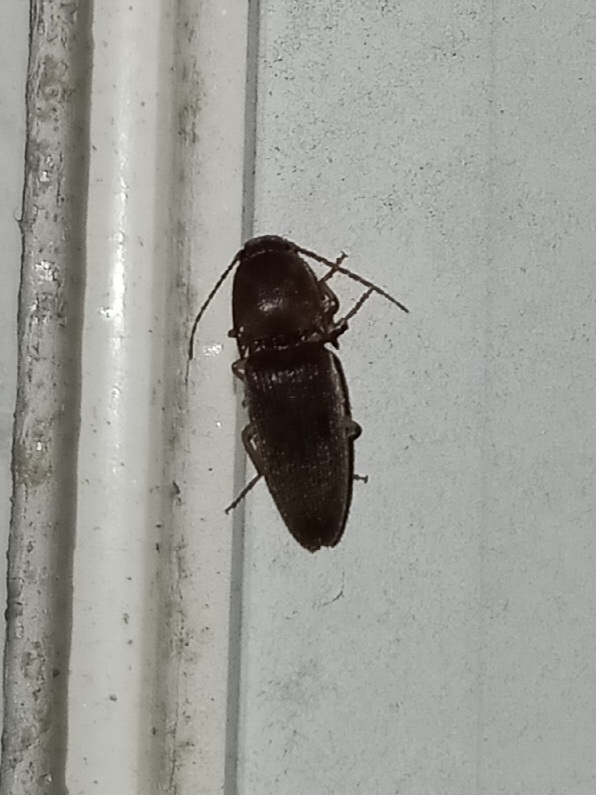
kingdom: Animalia
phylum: Arthropoda
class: Insecta
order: Coleoptera
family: Elateridae
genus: Conoderus
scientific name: Conoderus exsul
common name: Click beetle
